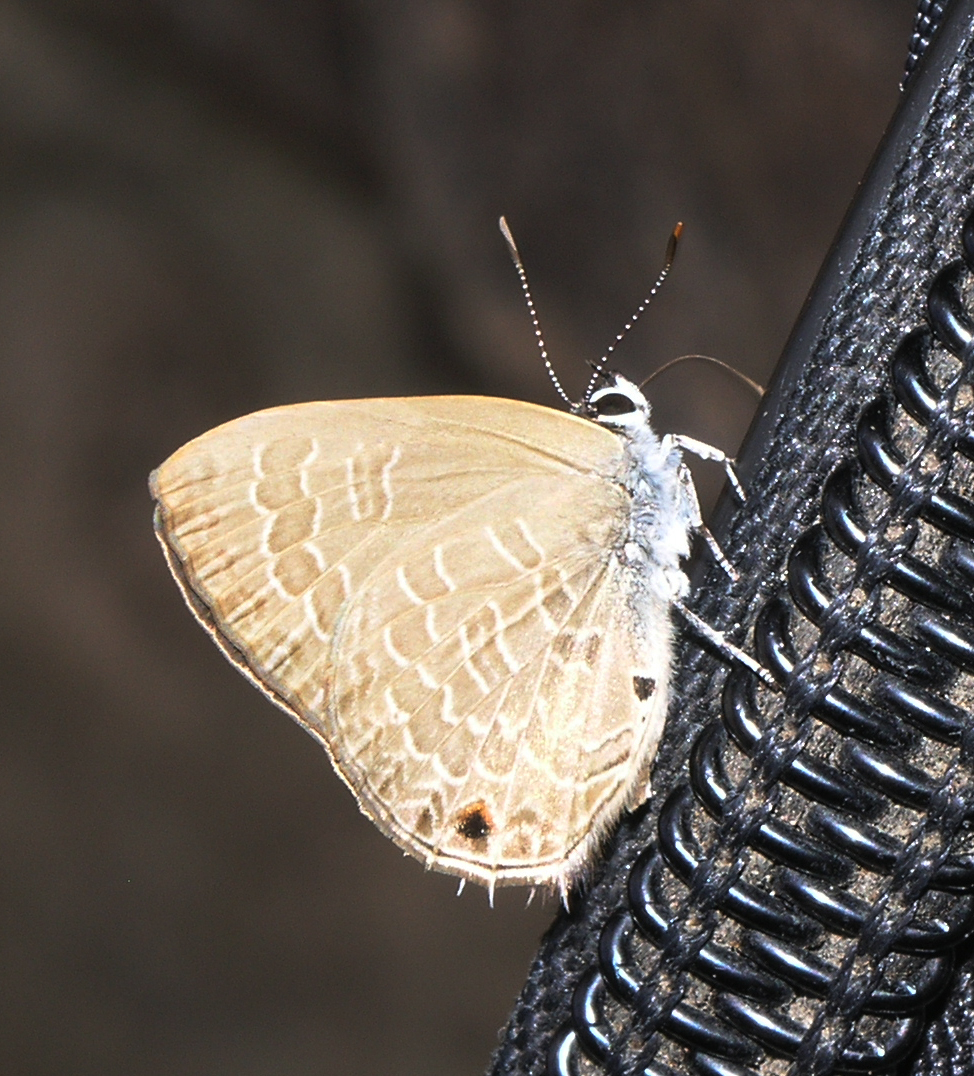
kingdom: Animalia
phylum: Arthropoda
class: Insecta
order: Lepidoptera
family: Lycaenidae
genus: Anthene
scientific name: Anthene emolus
